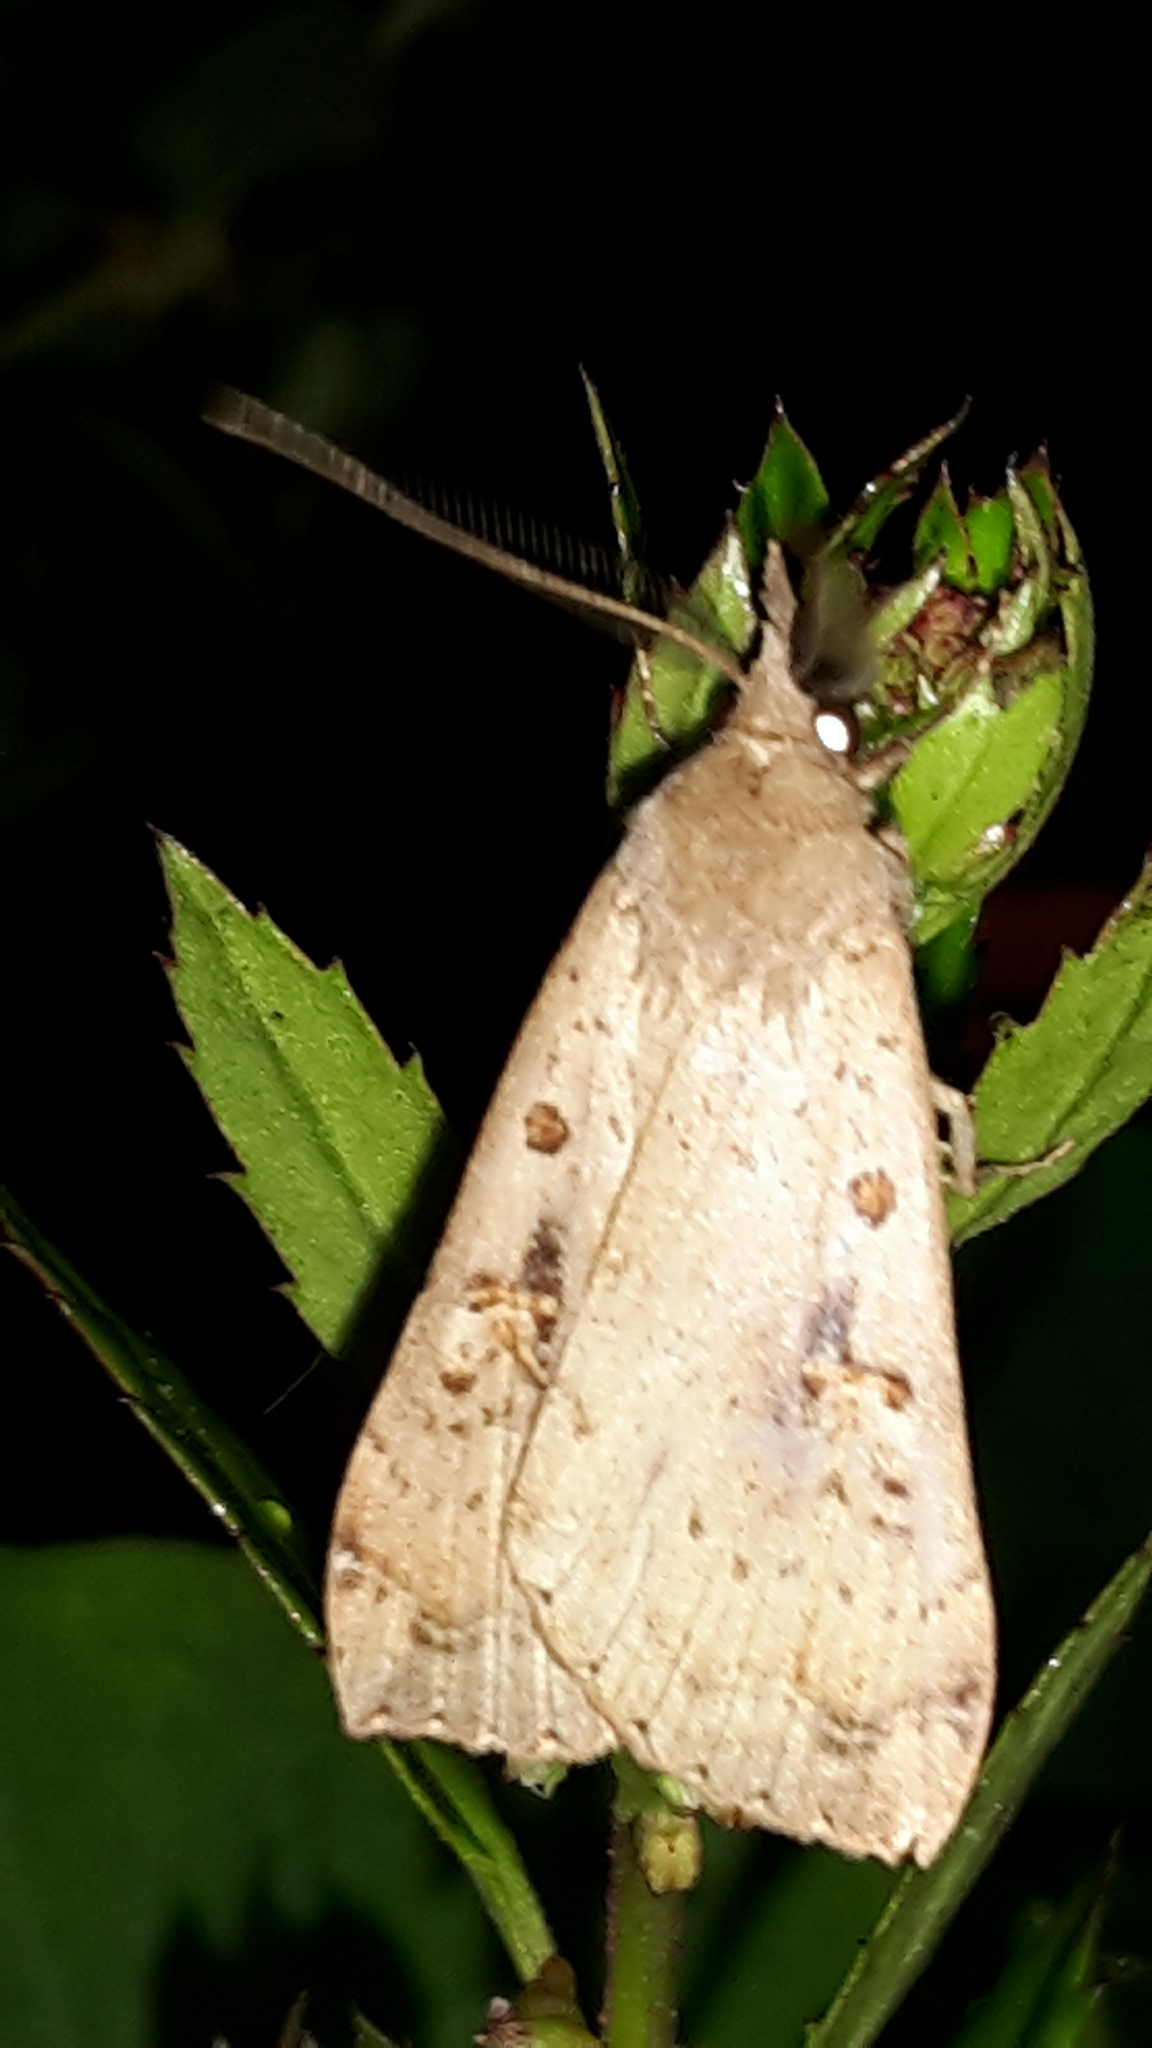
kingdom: Animalia
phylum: Arthropoda
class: Insecta
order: Lepidoptera
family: Erebidae
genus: Rhapsa
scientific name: Rhapsa scotosialis
